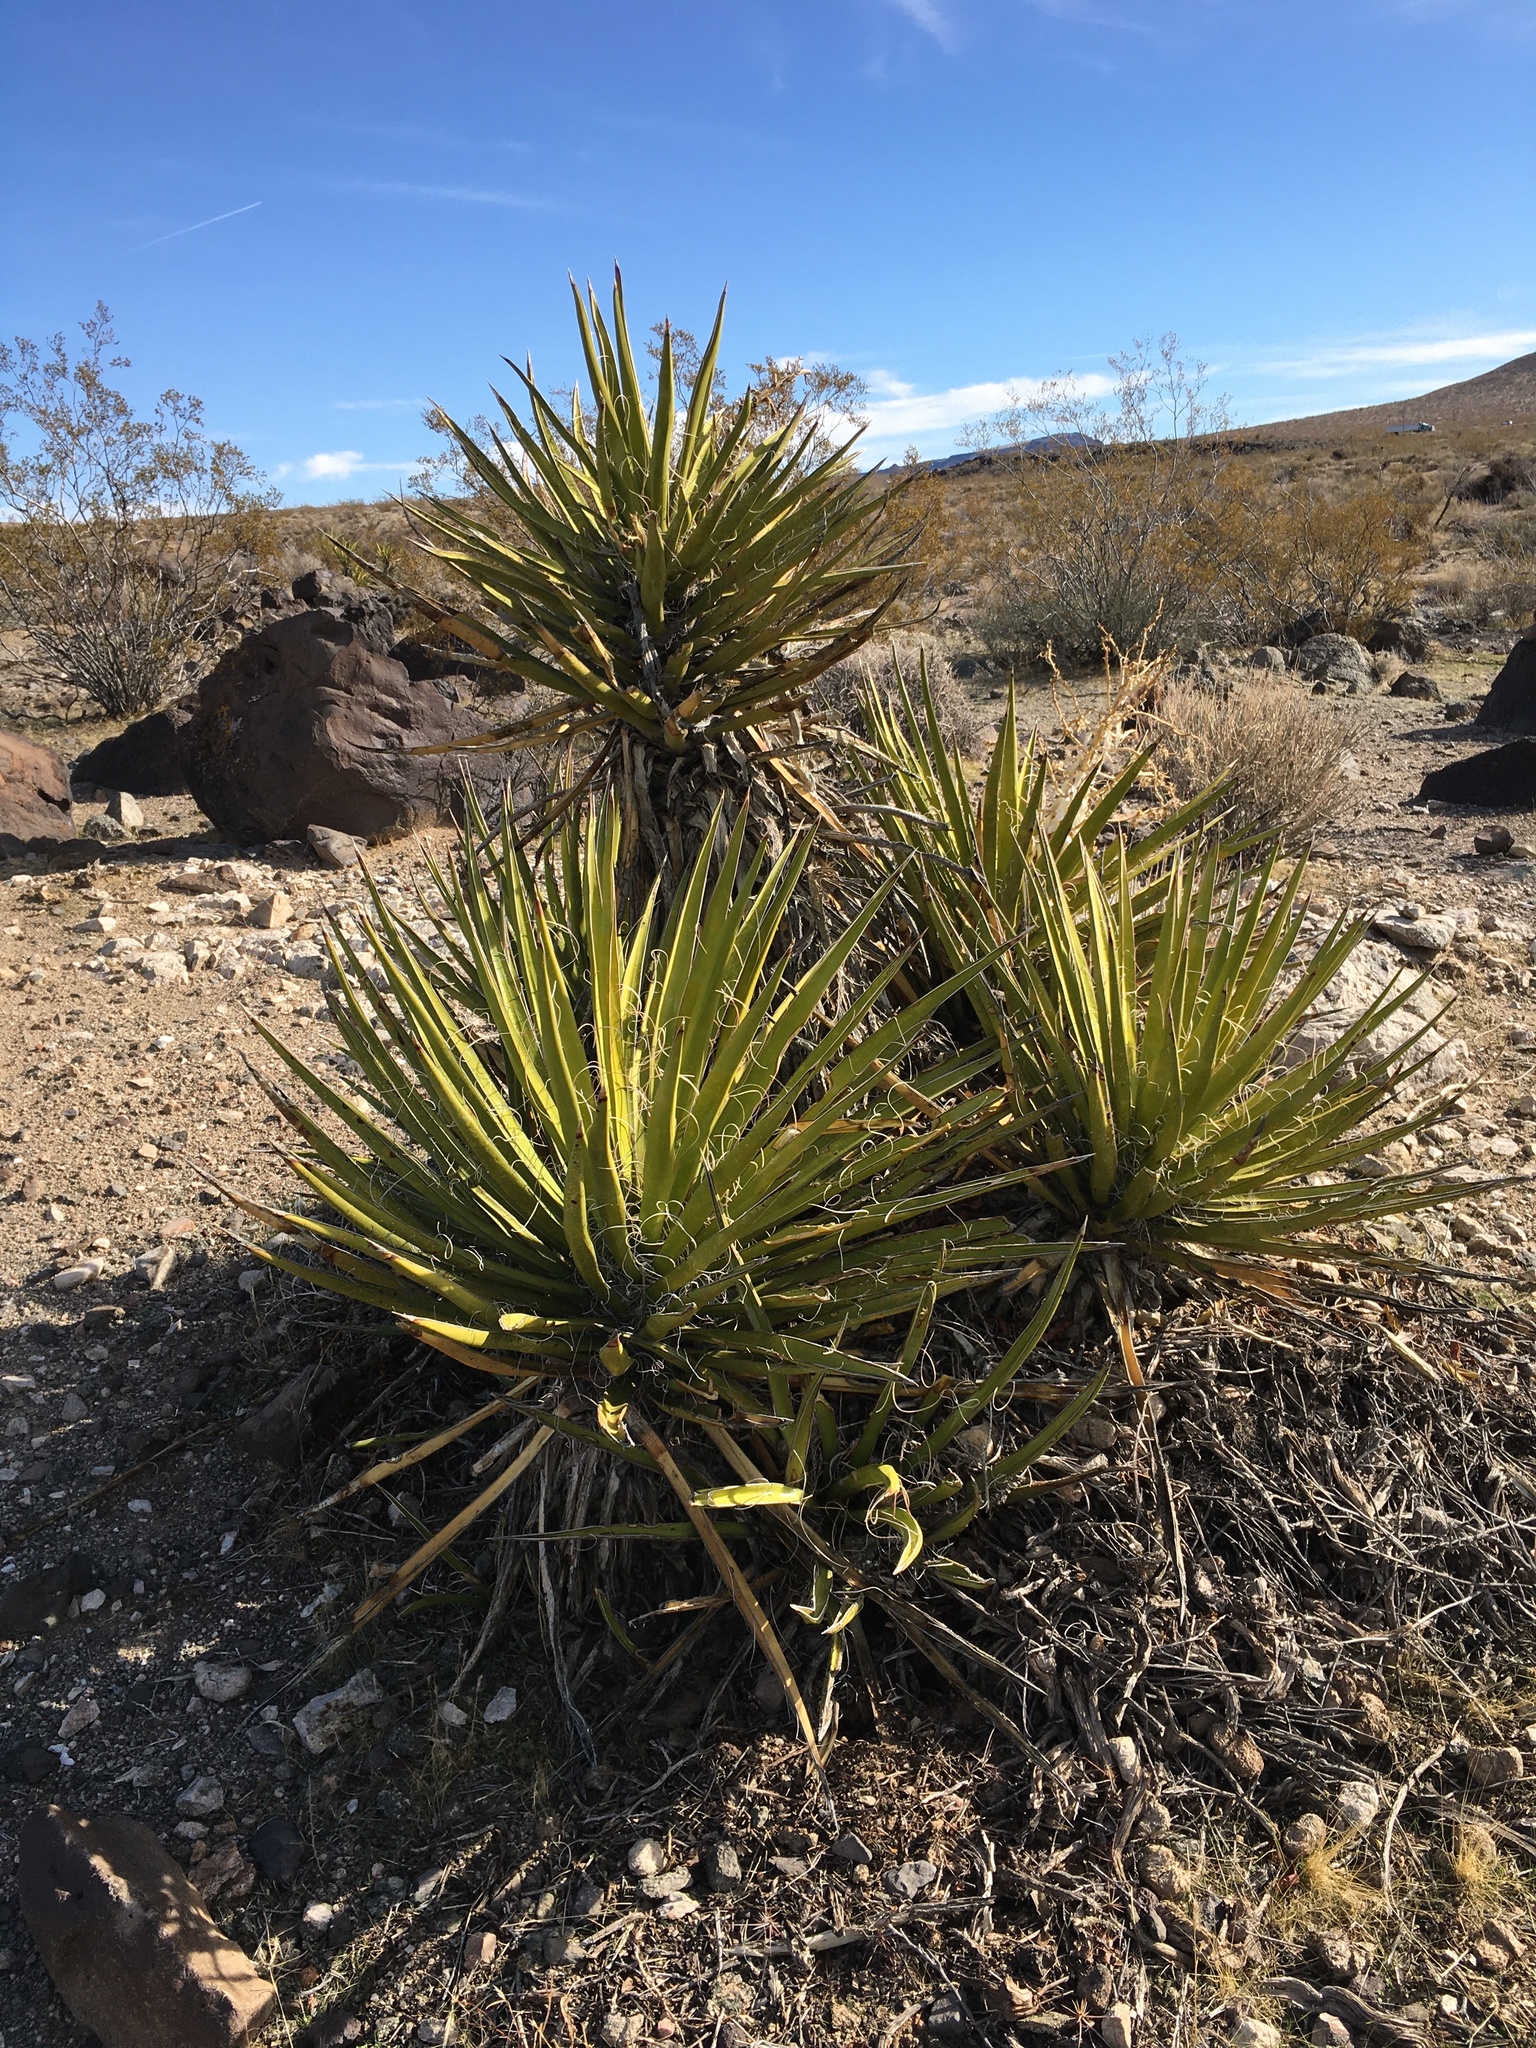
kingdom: Plantae
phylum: Tracheophyta
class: Liliopsida
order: Asparagales
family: Asparagaceae
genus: Yucca
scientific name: Yucca schidigera
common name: Mojave yucca
